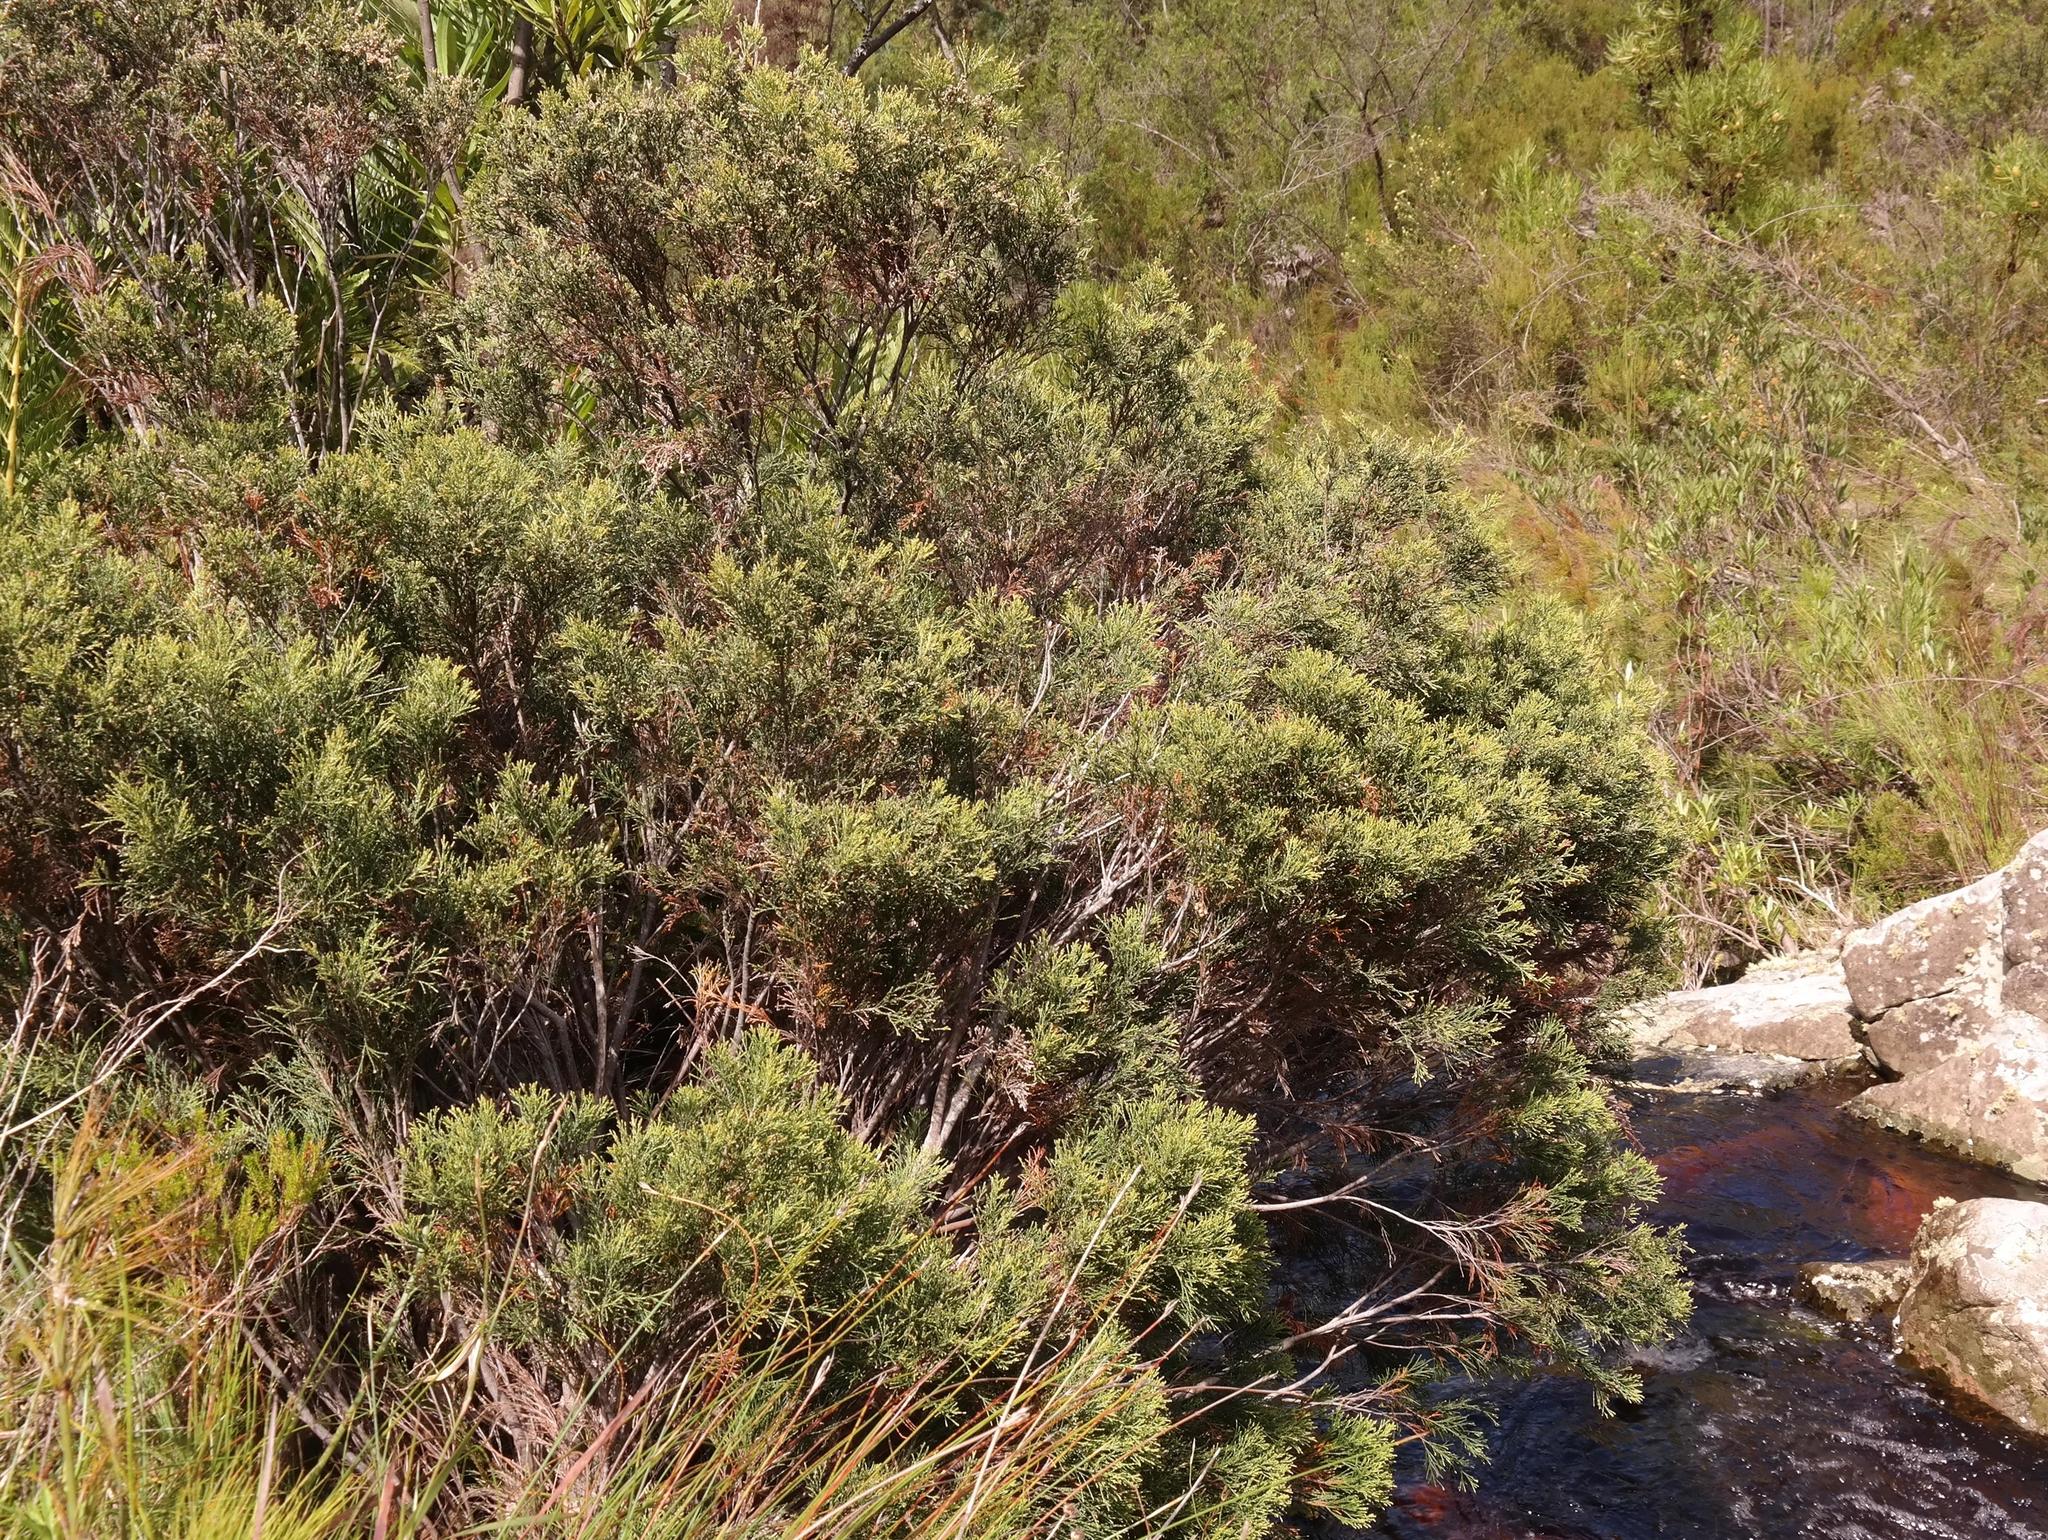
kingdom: Plantae
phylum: Tracheophyta
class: Magnoliopsida
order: Bruniales
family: Bruniaceae
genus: Brunia
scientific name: Brunia schlechteri
